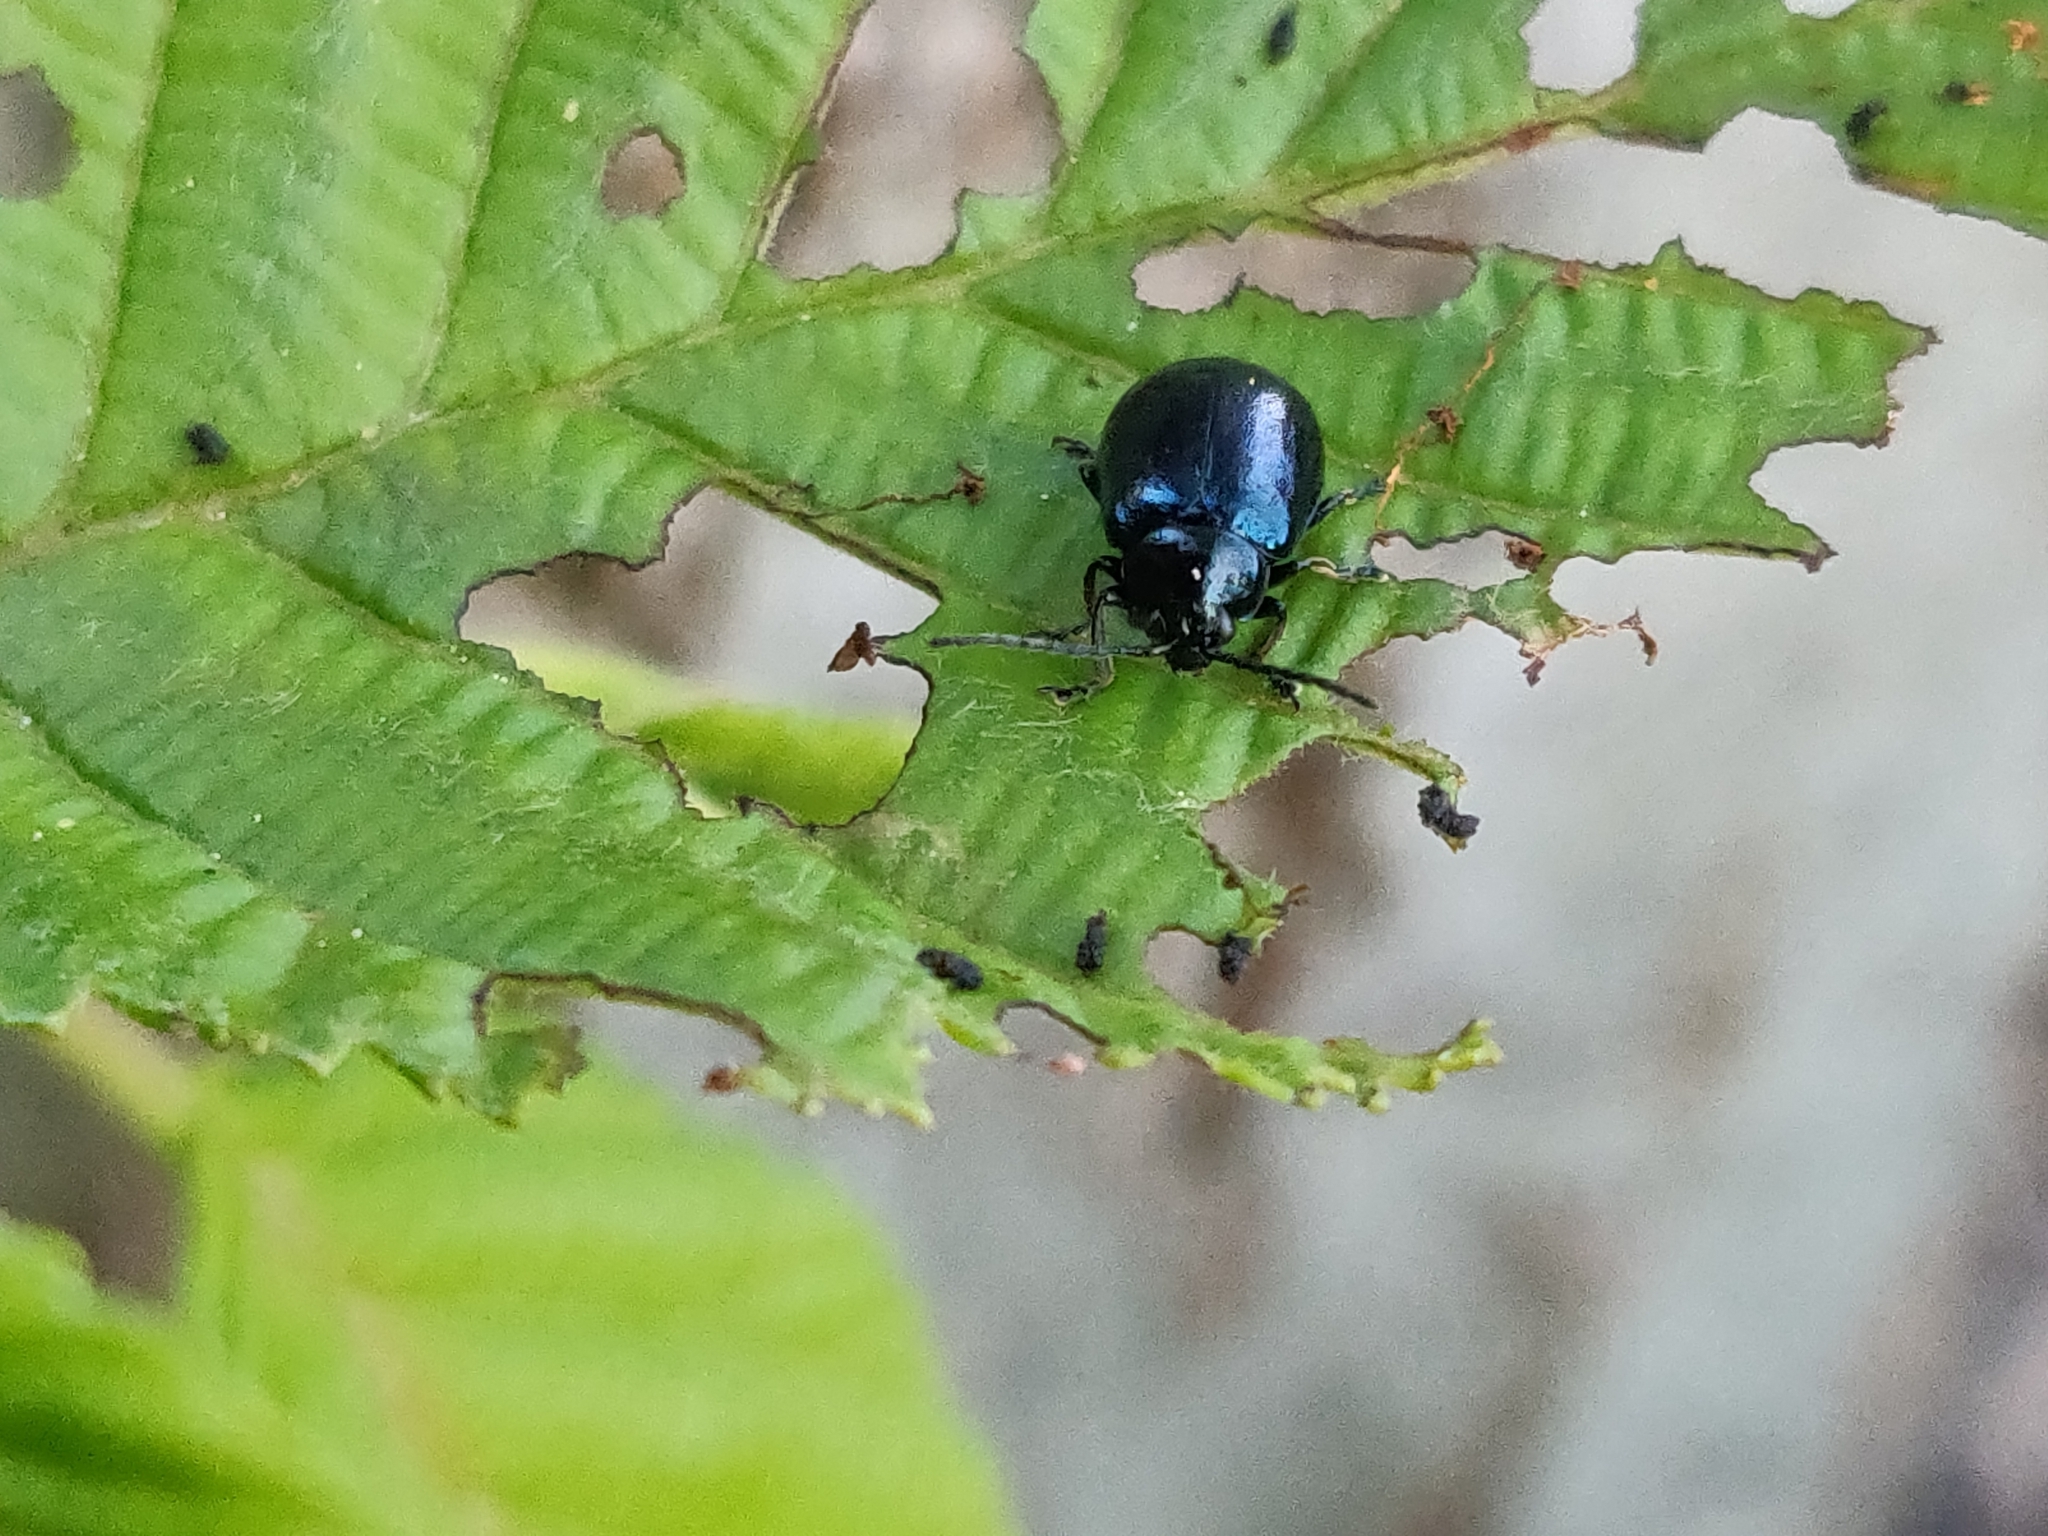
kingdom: Animalia
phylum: Arthropoda
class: Insecta
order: Coleoptera
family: Chrysomelidae
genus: Agelastica
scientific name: Agelastica alni
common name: Alder leaf beetle
